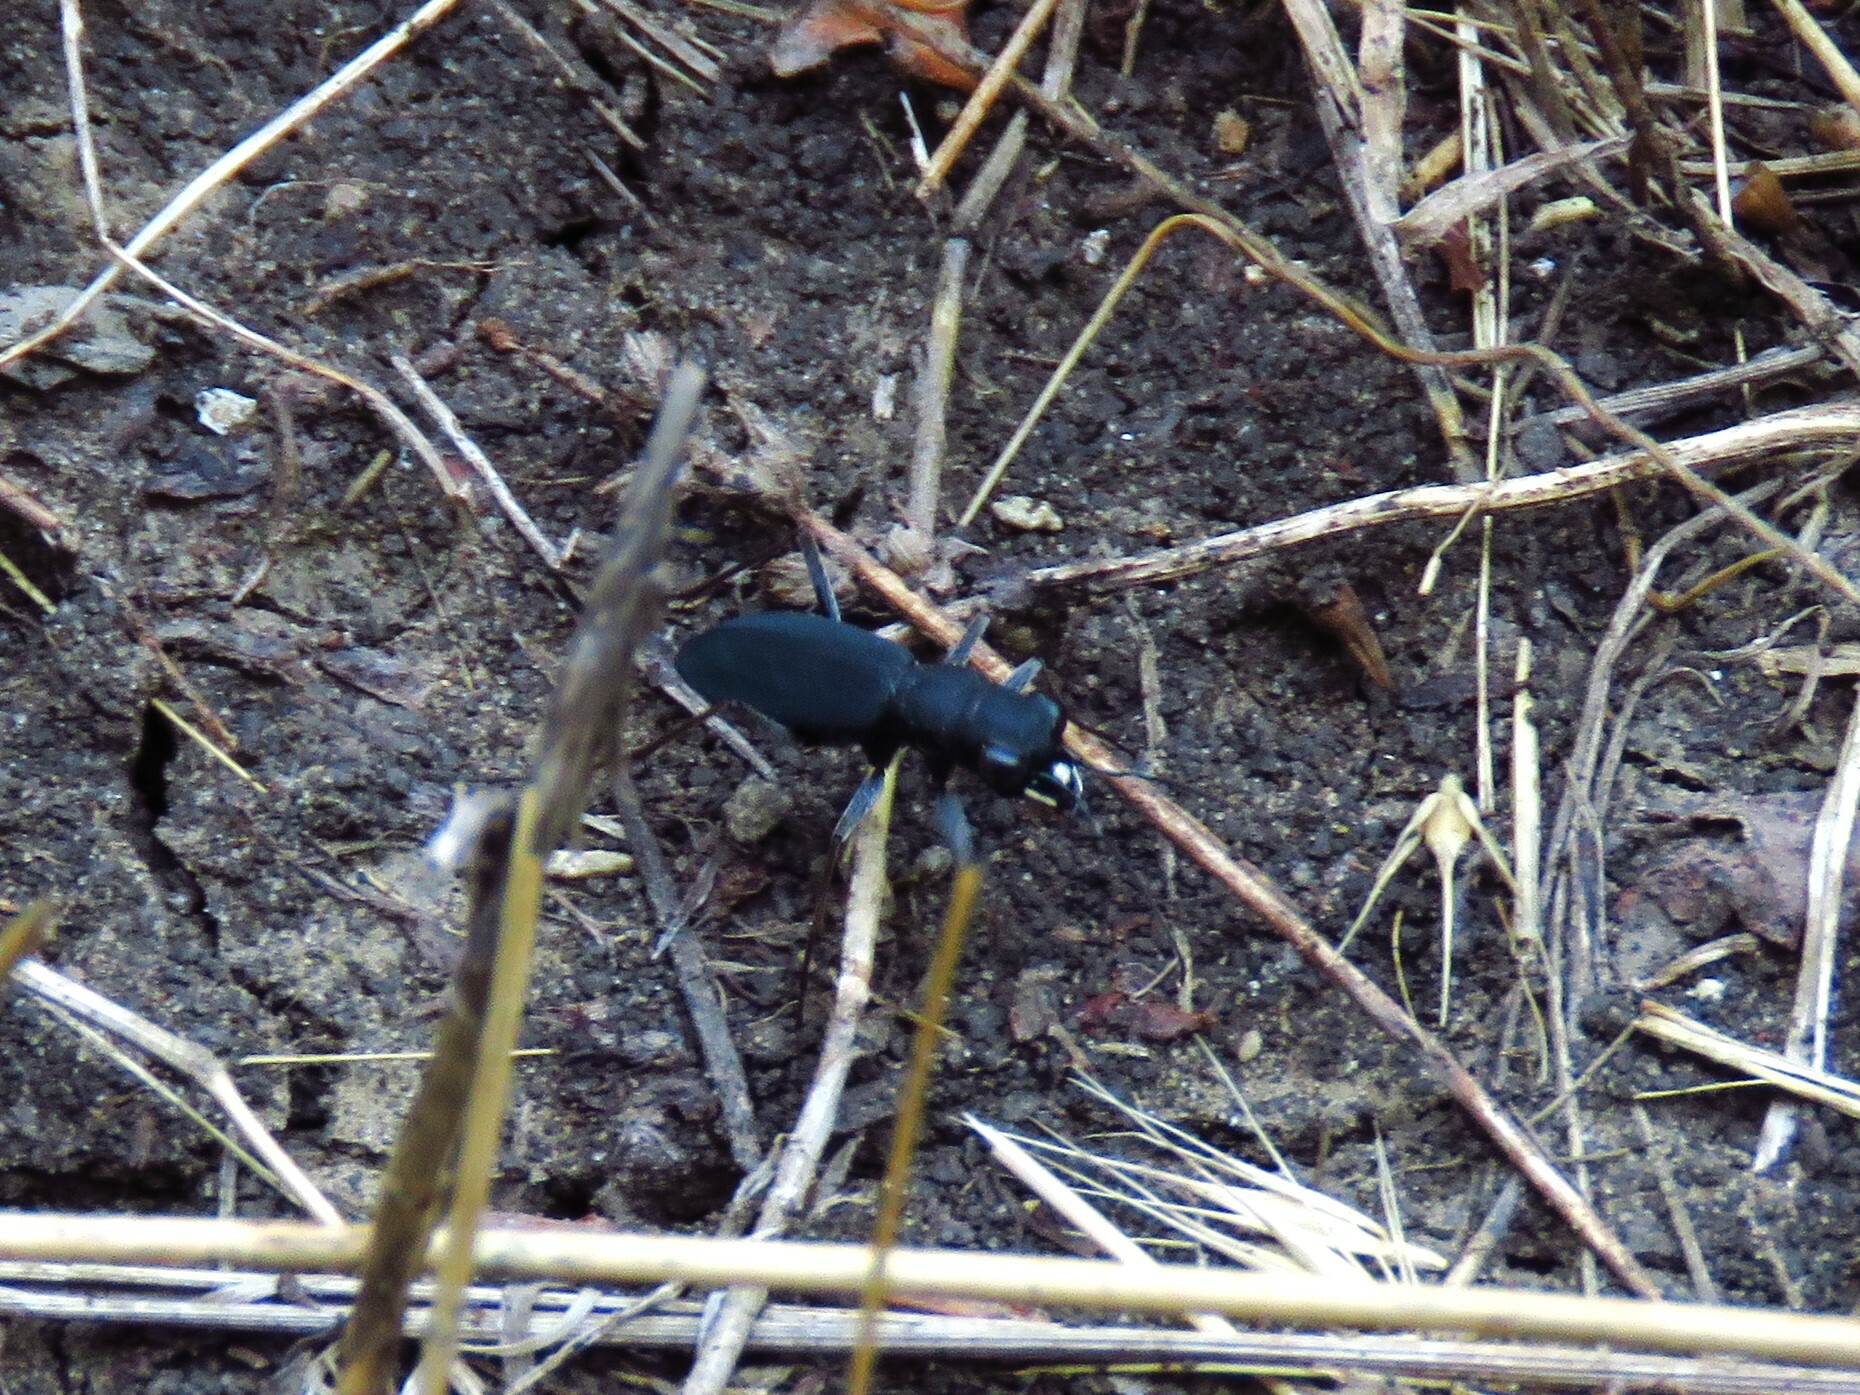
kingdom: Animalia
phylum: Arthropoda
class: Insecta
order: Coleoptera
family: Carabidae
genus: Dromochorus
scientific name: Dromochorus pruininus
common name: Frosted dromo tiger beetle
